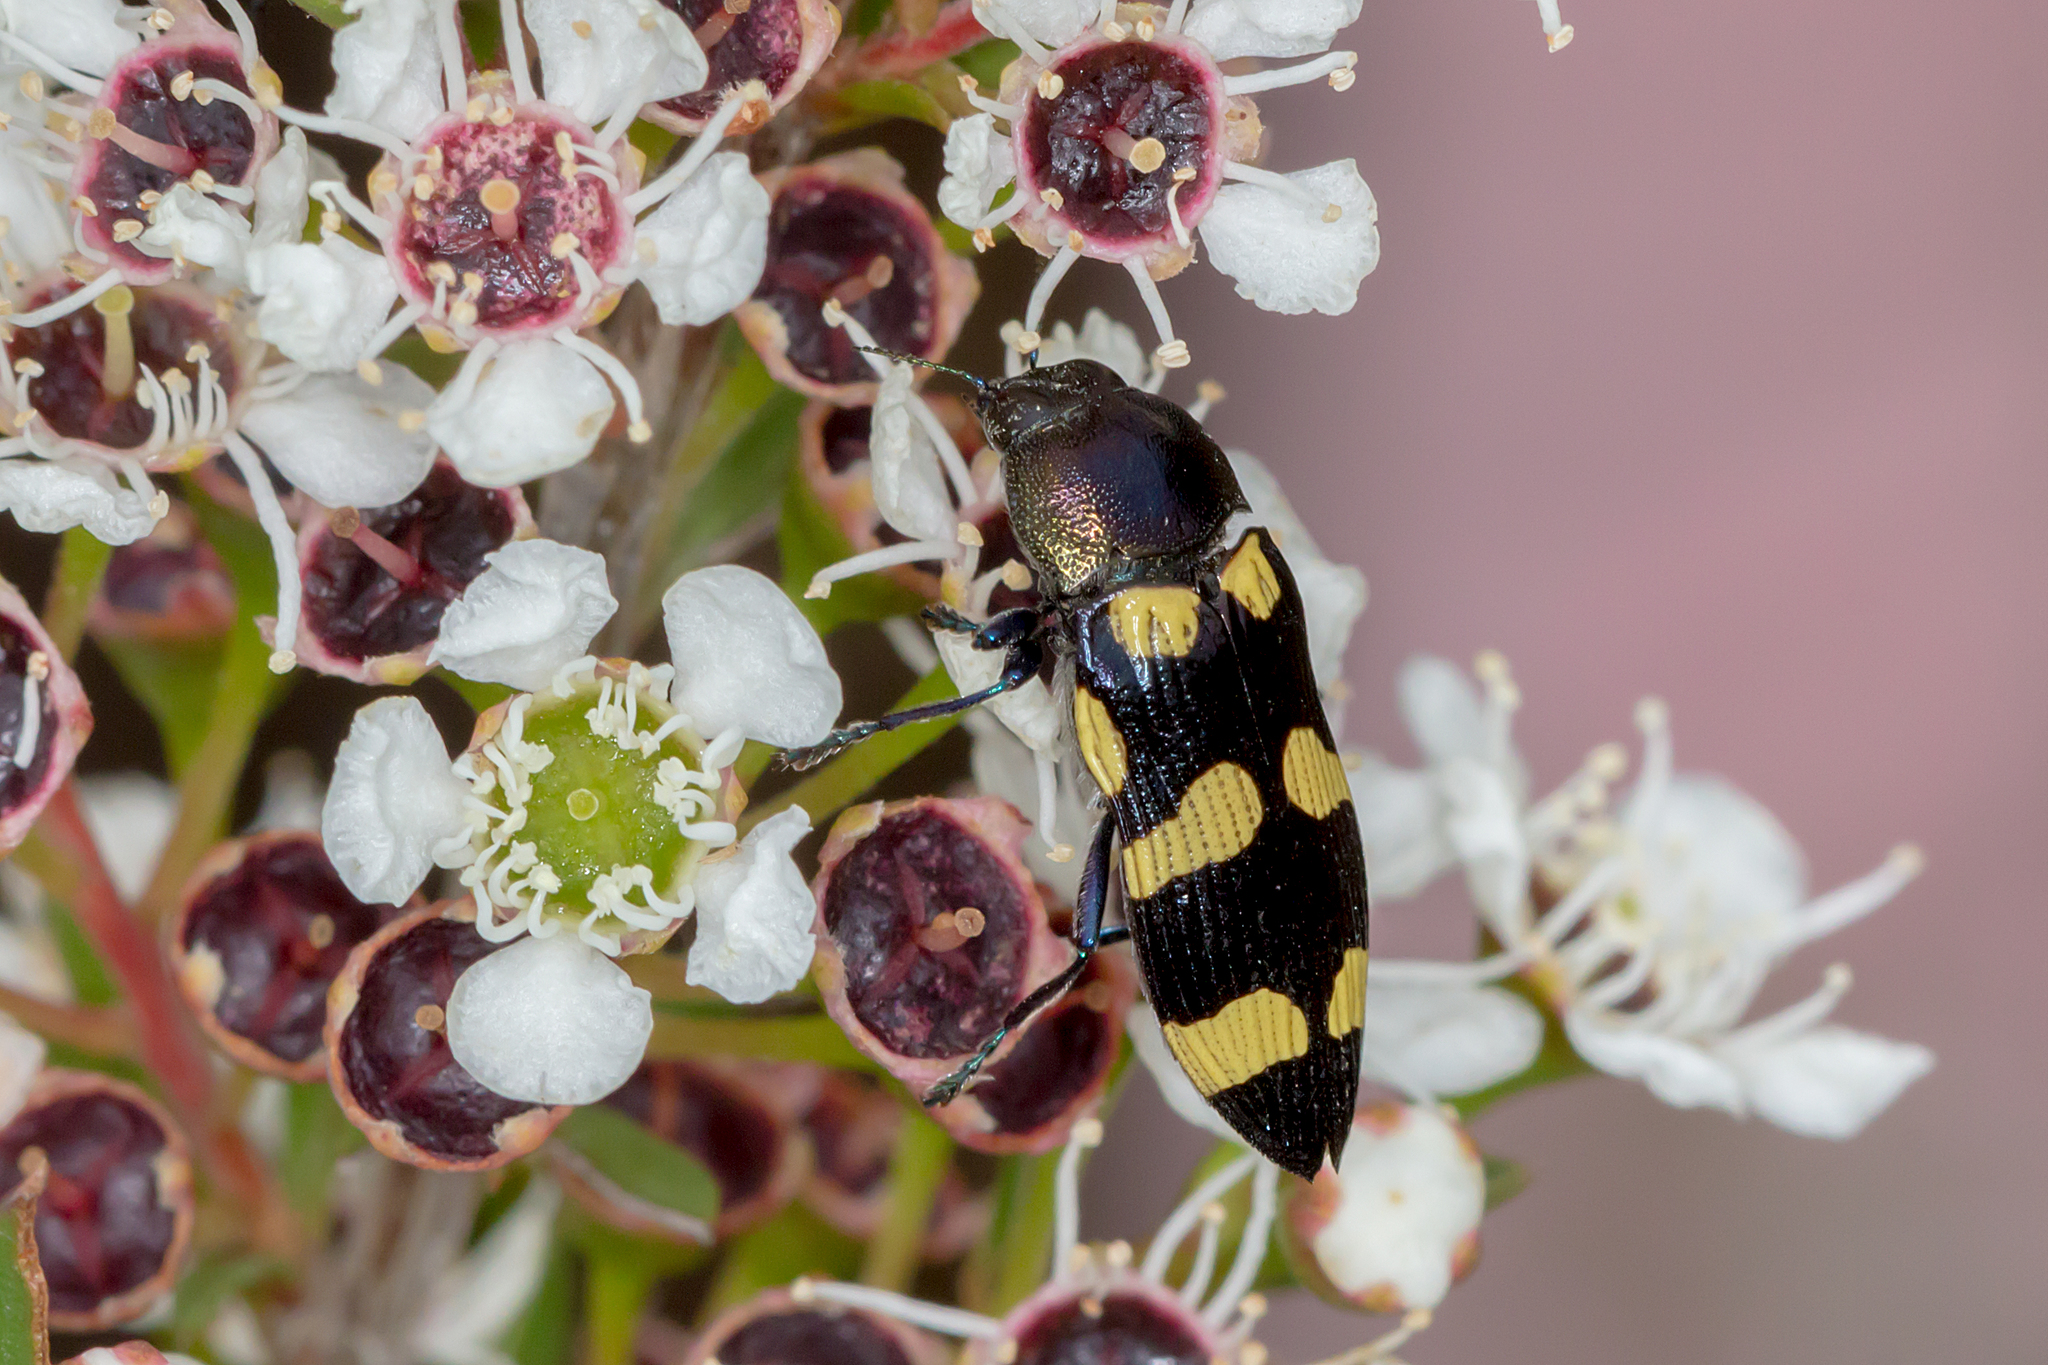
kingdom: Animalia
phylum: Arthropoda
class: Insecta
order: Coleoptera
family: Buprestidae
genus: Castiarina
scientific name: Castiarina australasiae
